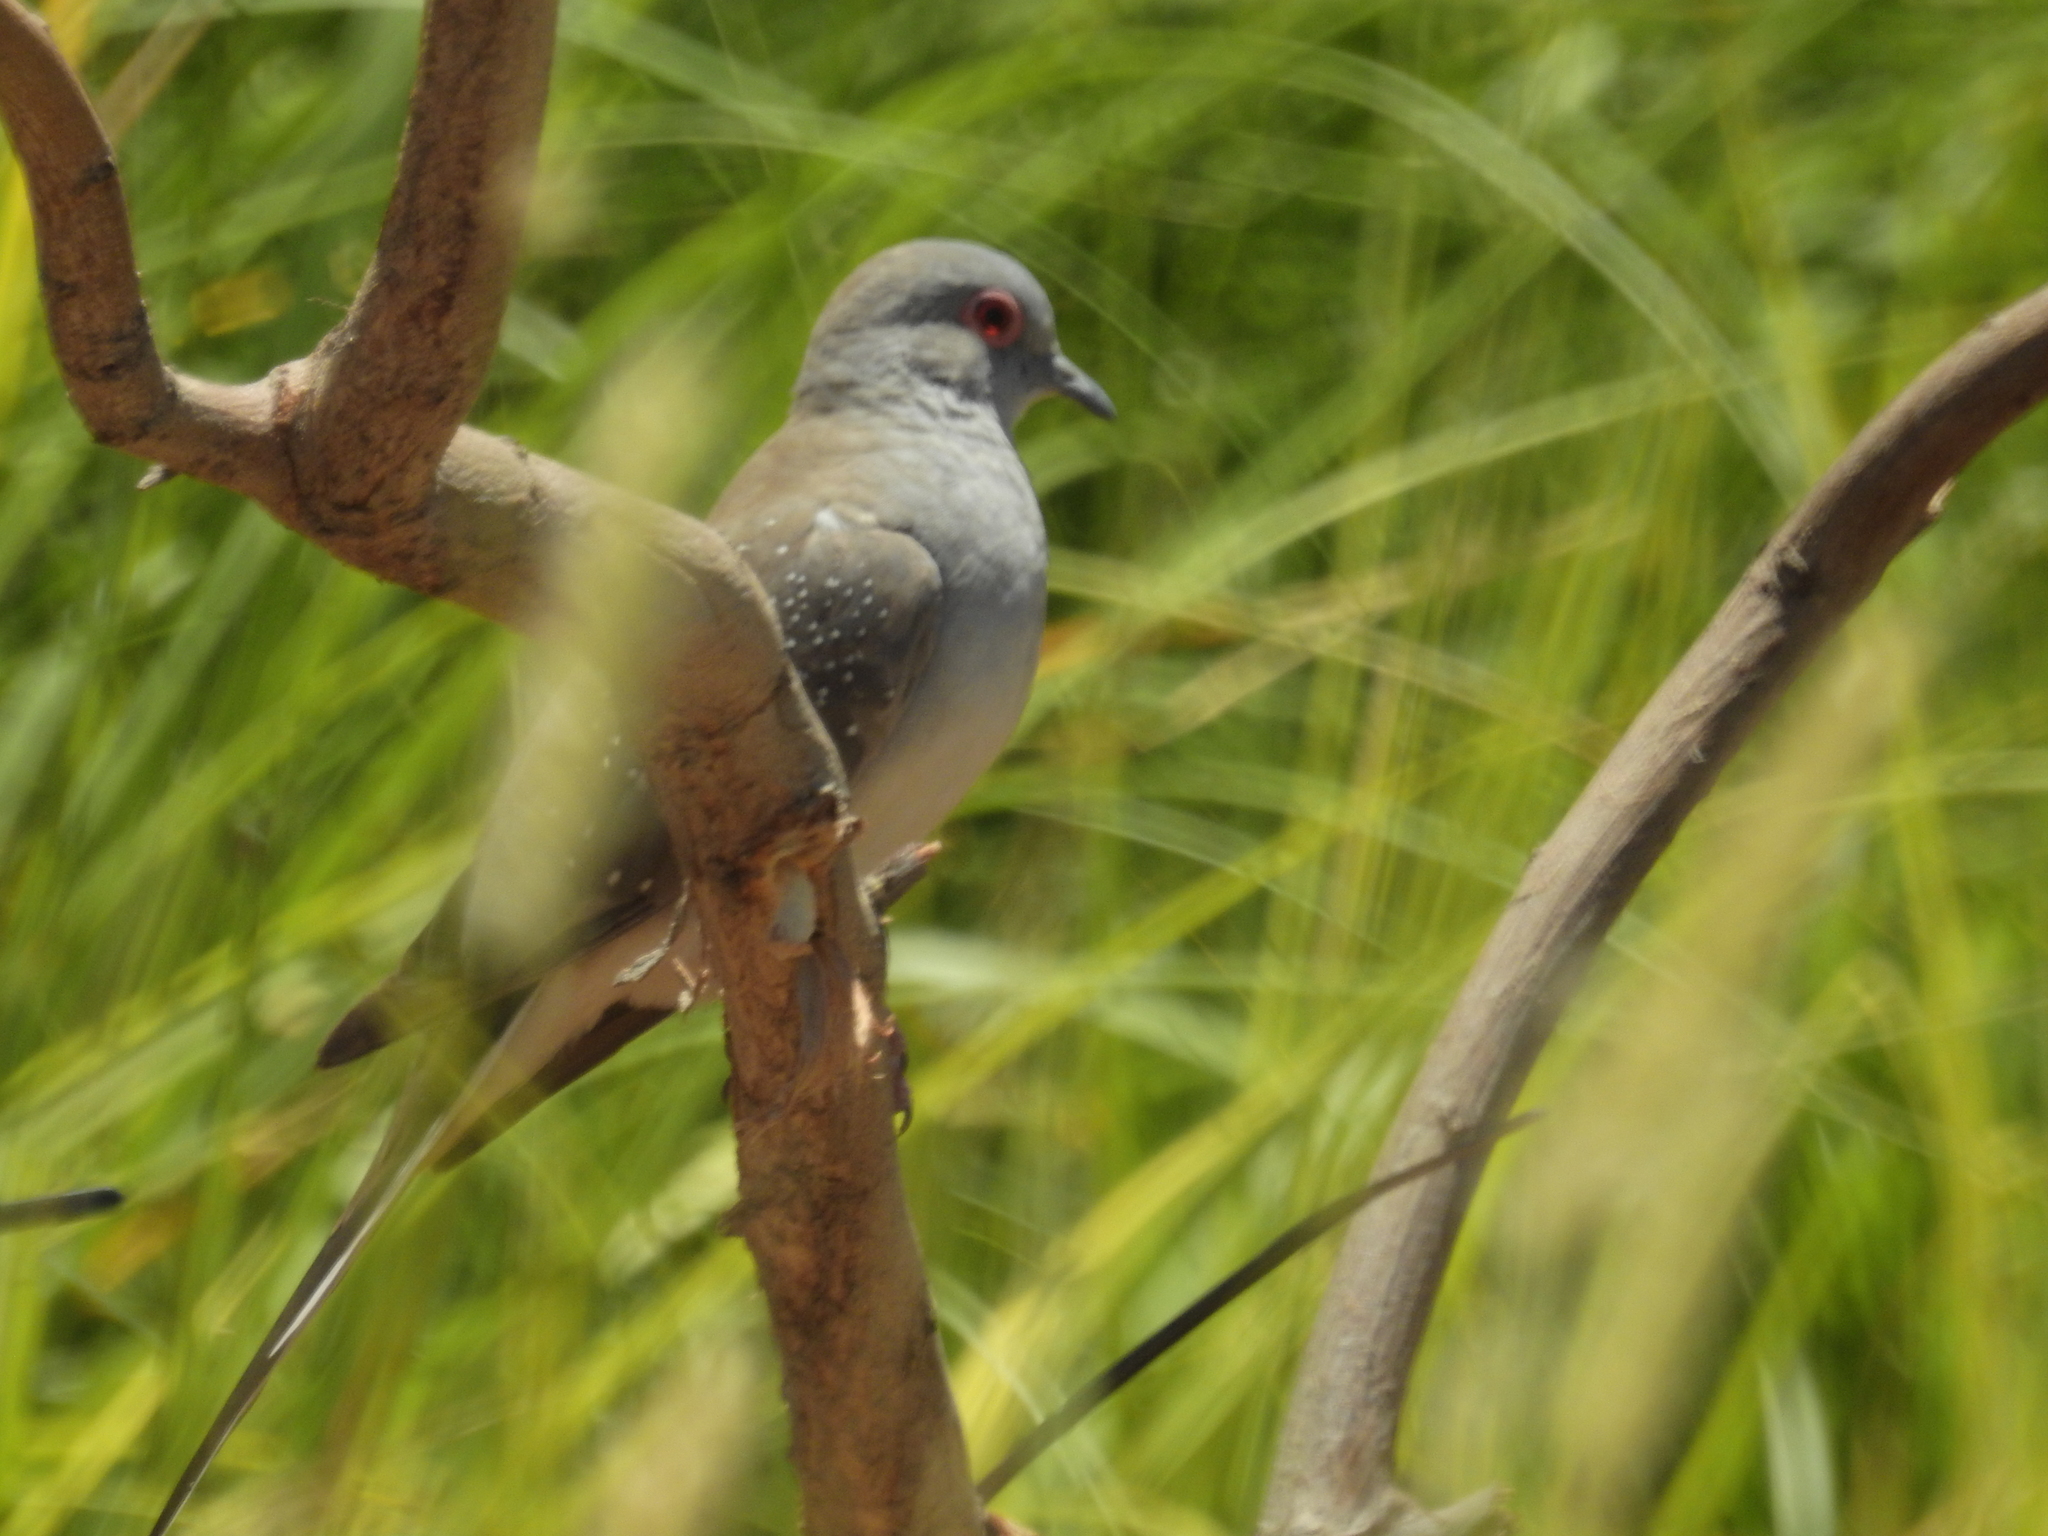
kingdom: Animalia
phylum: Chordata
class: Aves
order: Columbiformes
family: Columbidae
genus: Geopelia
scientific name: Geopelia cuneata
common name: Diamond dove
